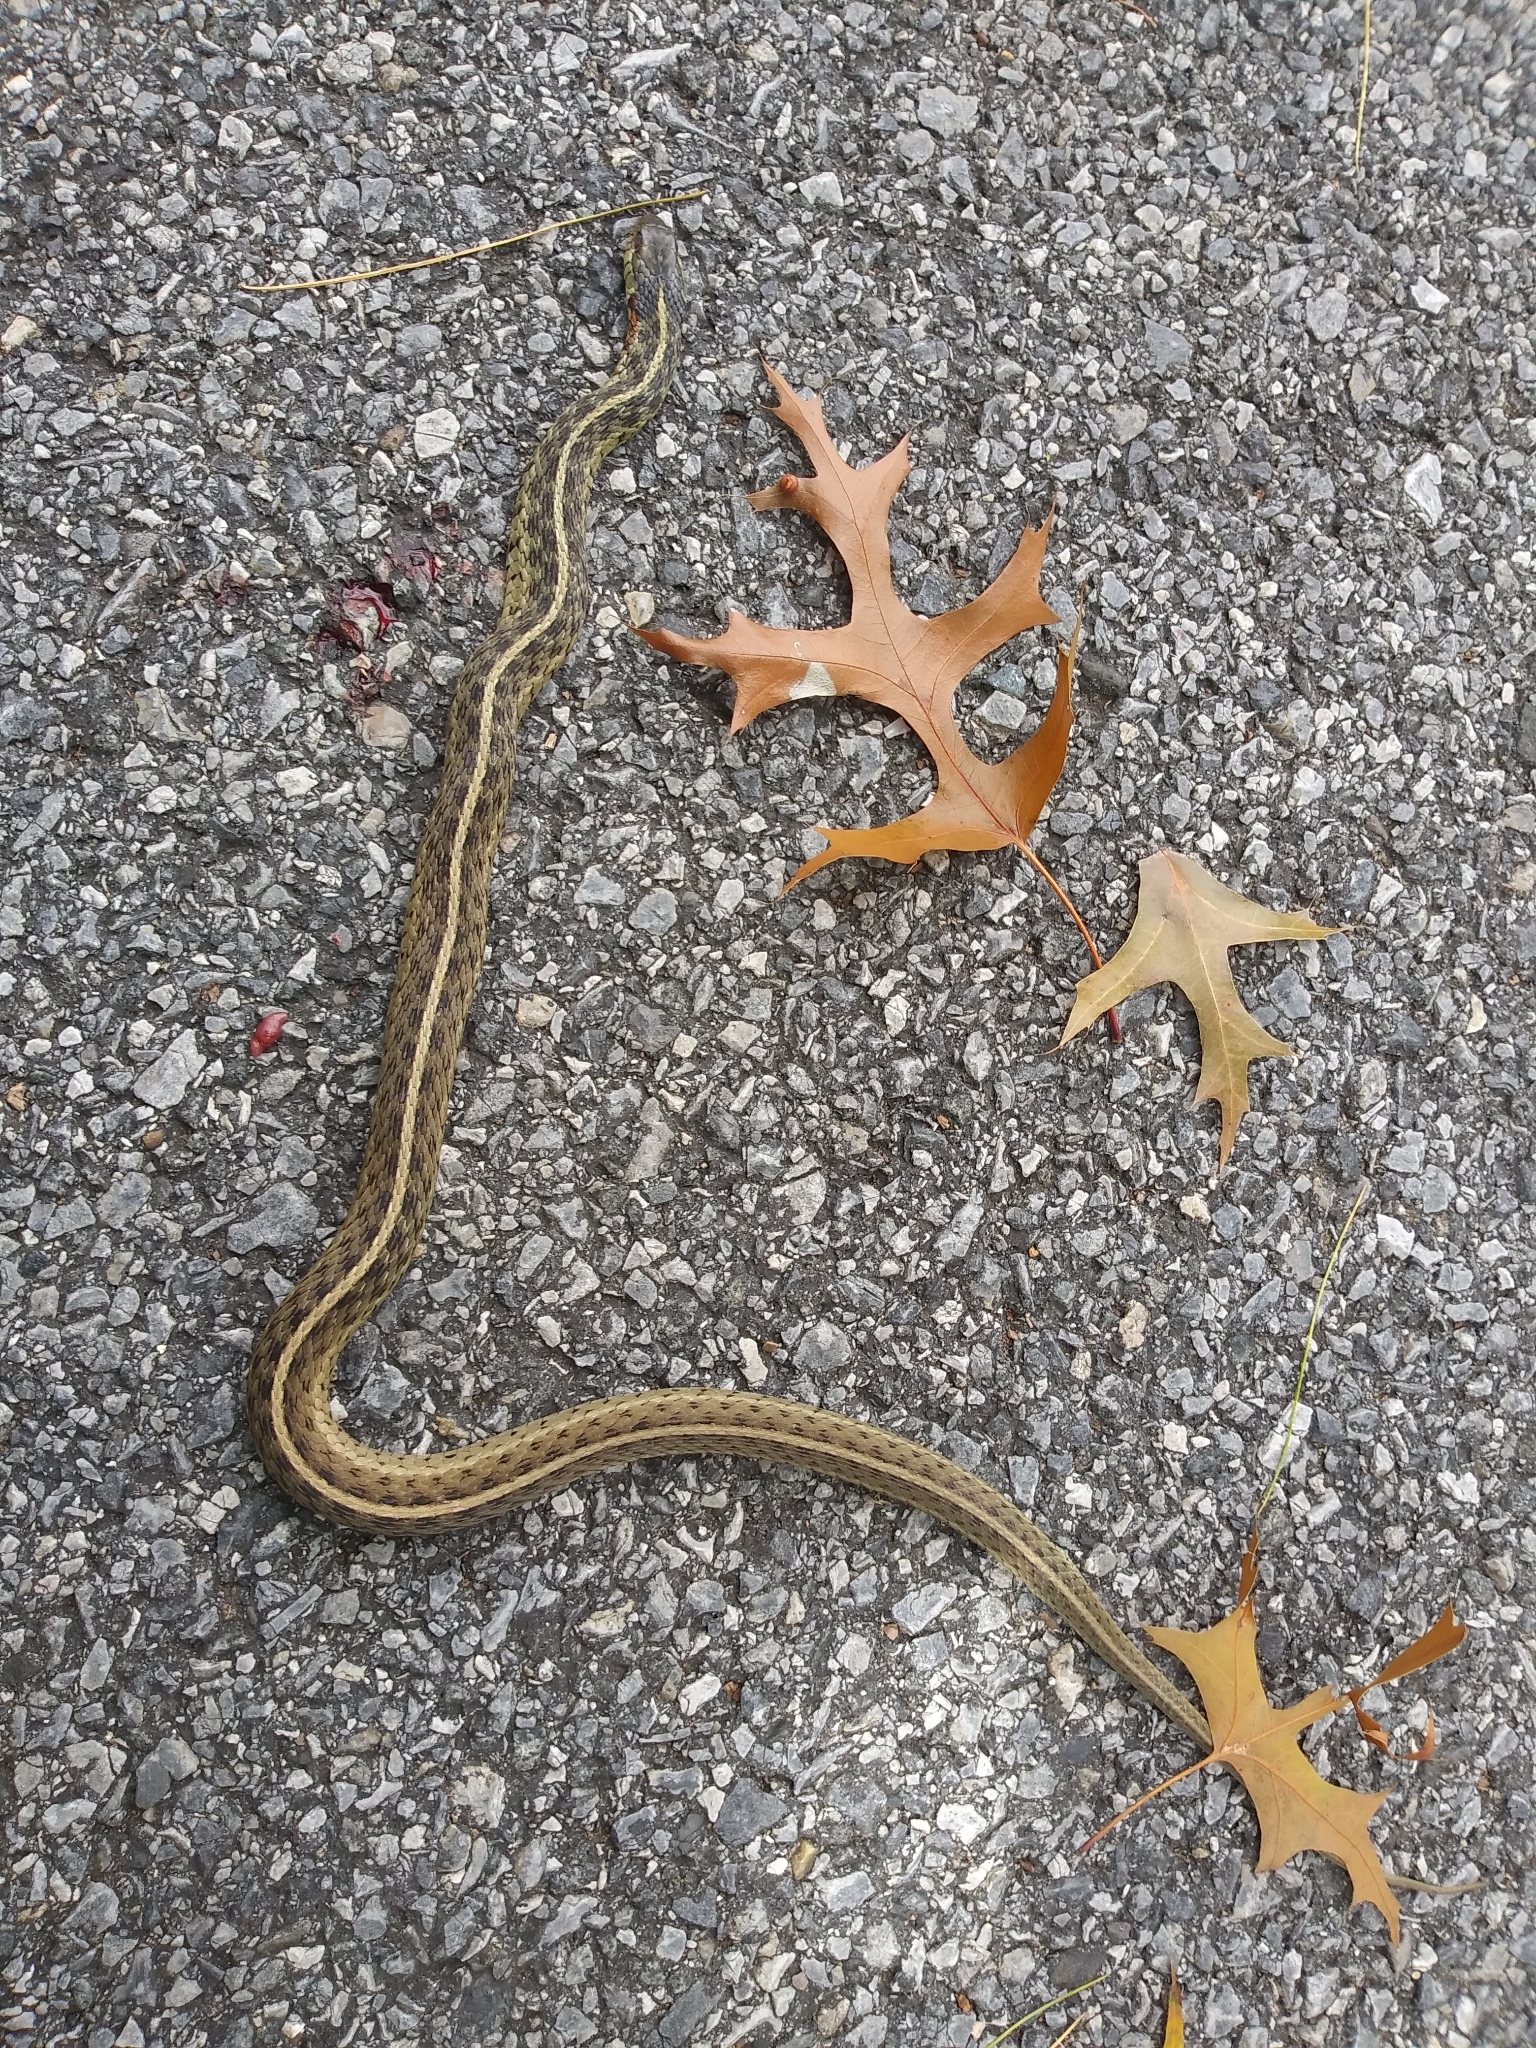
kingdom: Animalia
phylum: Chordata
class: Squamata
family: Colubridae
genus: Thamnophis
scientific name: Thamnophis sirtalis
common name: Common garter snake
